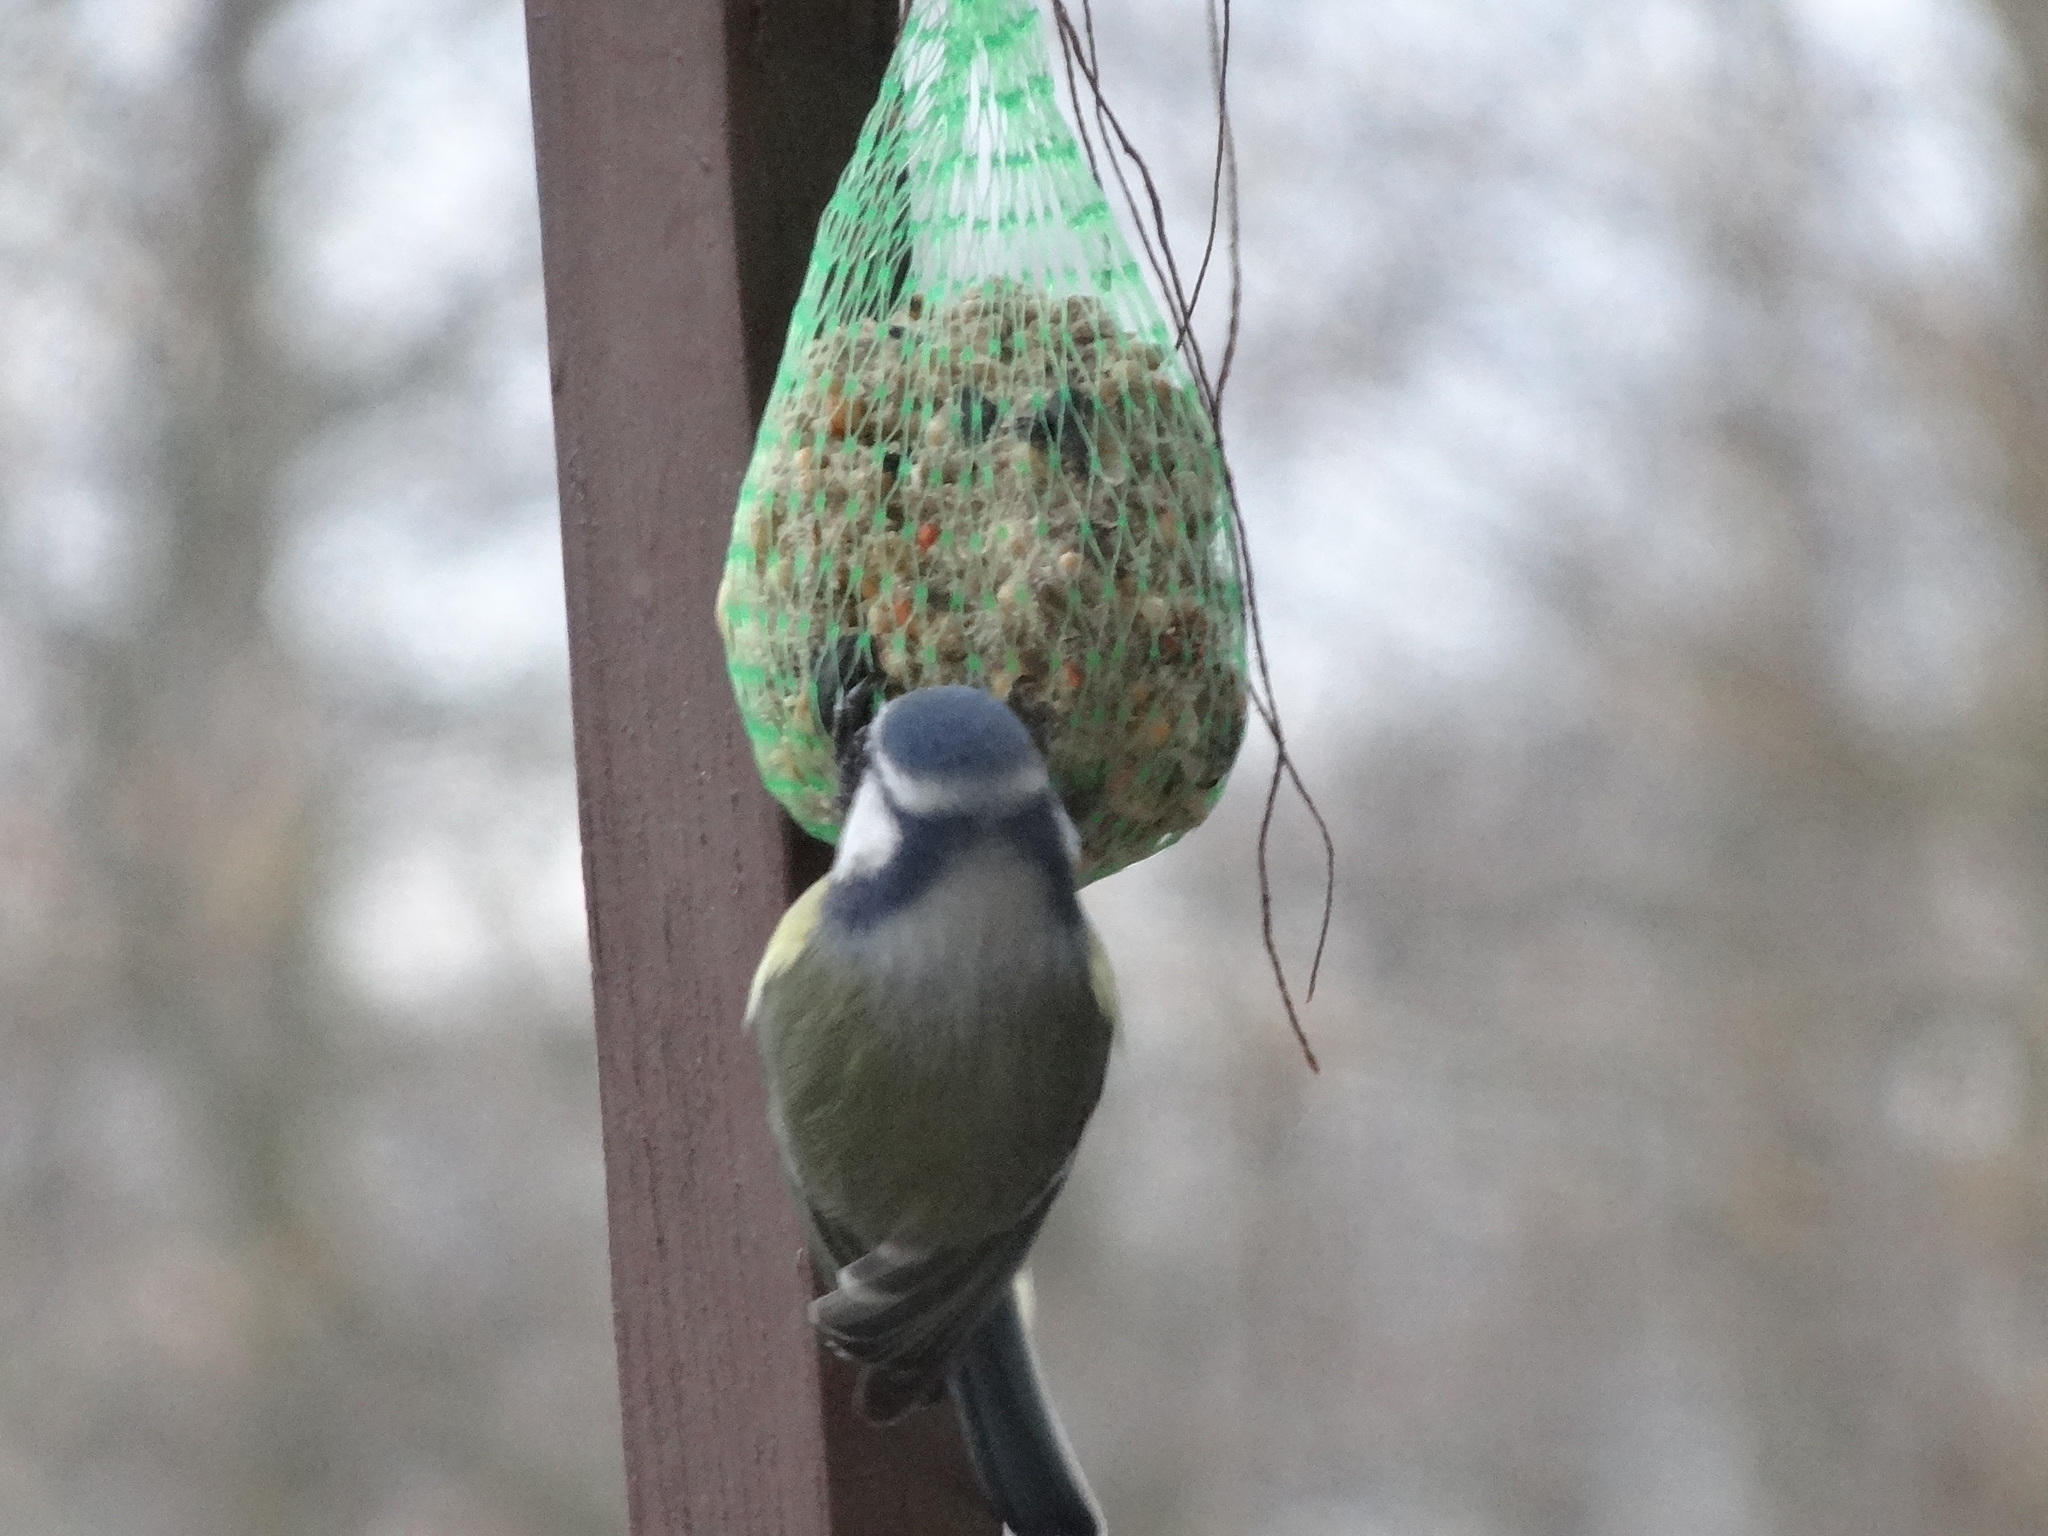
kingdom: Animalia
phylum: Chordata
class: Aves
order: Passeriformes
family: Paridae
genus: Cyanistes
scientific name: Cyanistes caeruleus
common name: Eurasian blue tit
